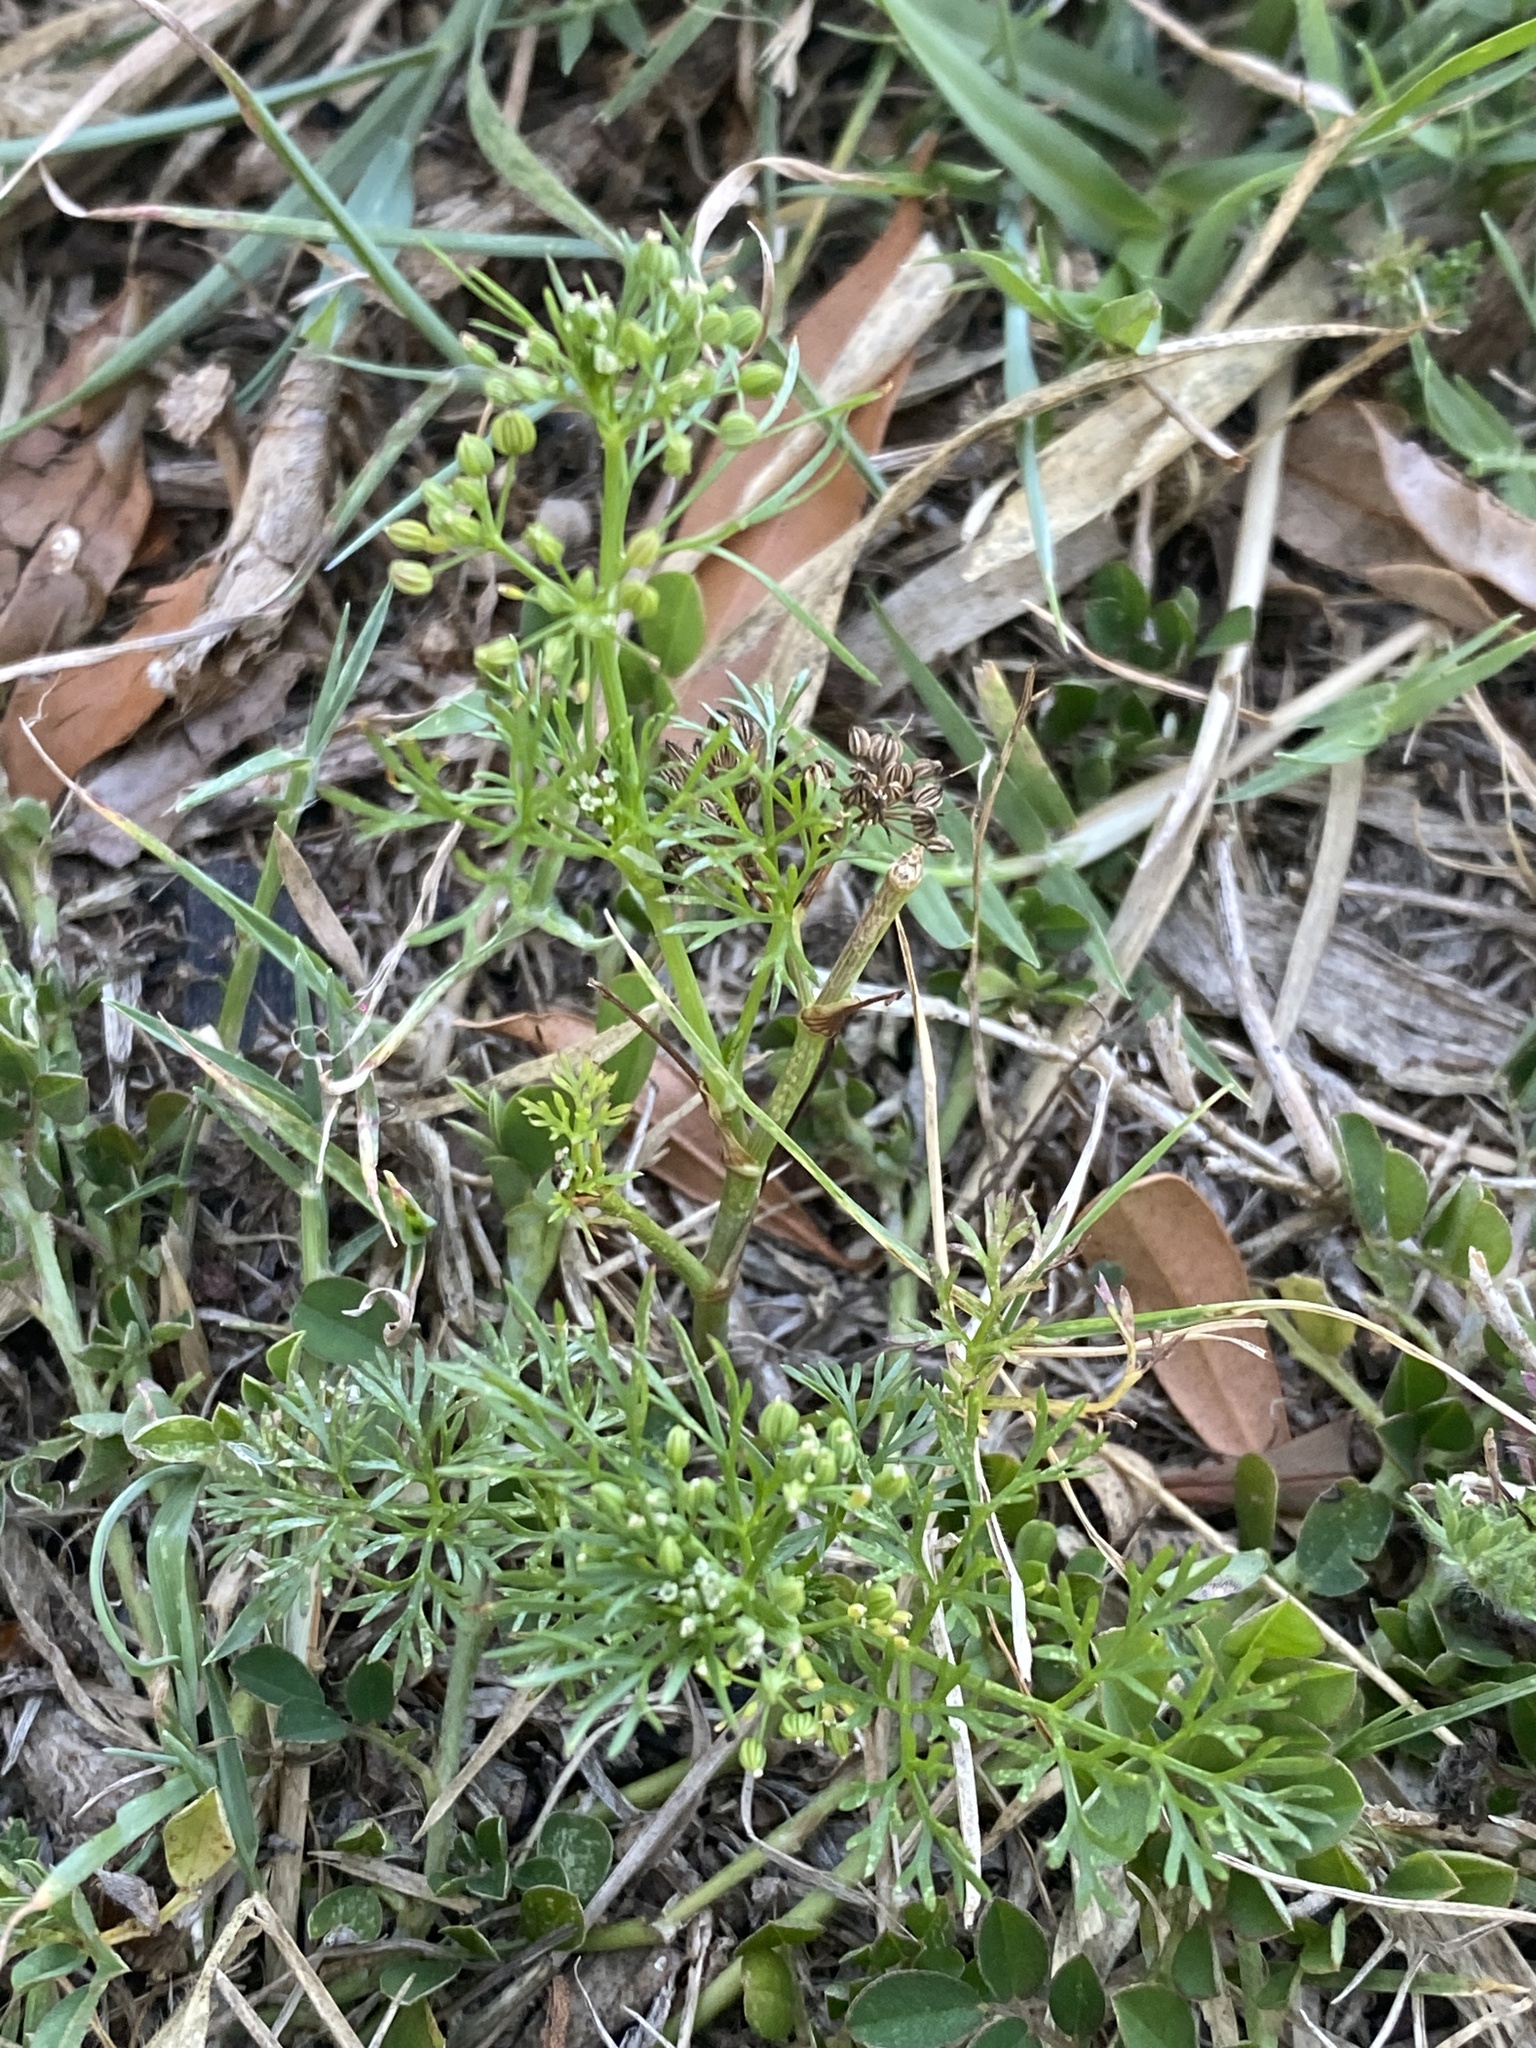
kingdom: Plantae
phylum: Tracheophyta
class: Magnoliopsida
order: Apiales
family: Apiaceae
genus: Cyclospermum
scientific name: Cyclospermum leptophyllum
